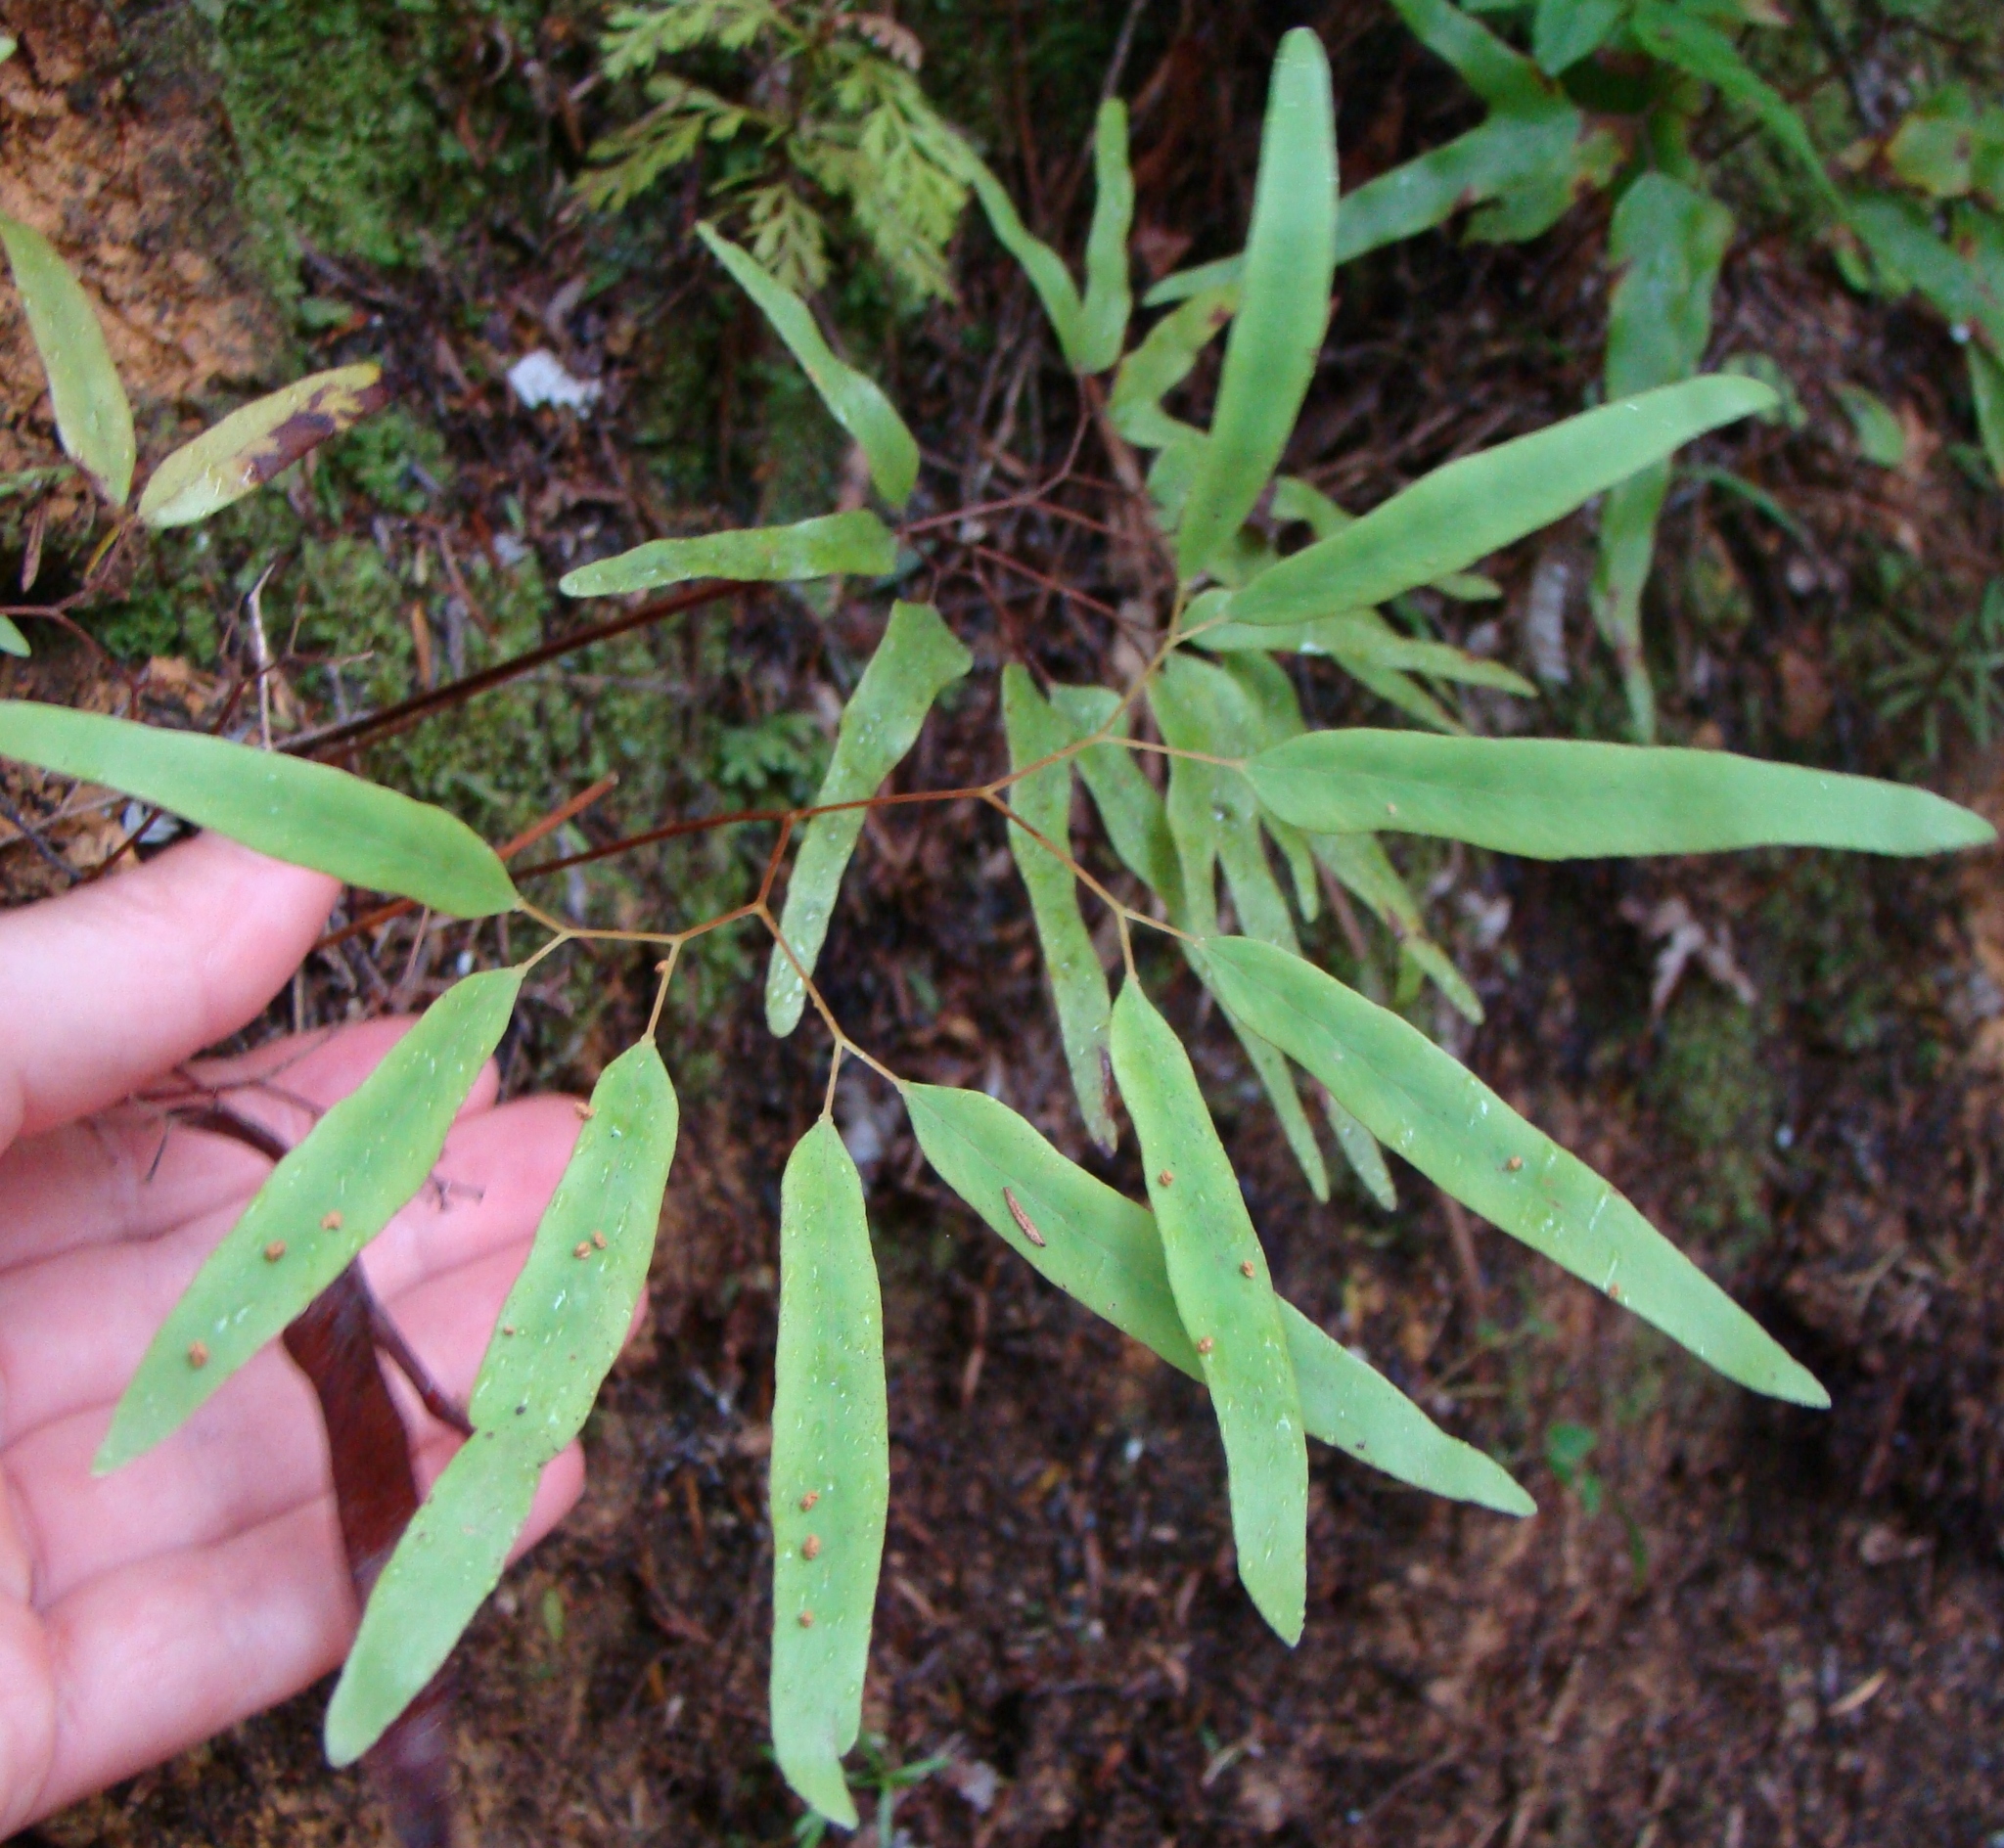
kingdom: Plantae
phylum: Tracheophyta
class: Polypodiopsida
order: Schizaeales
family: Lygodiaceae
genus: Lygodium
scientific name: Lygodium articulatum
